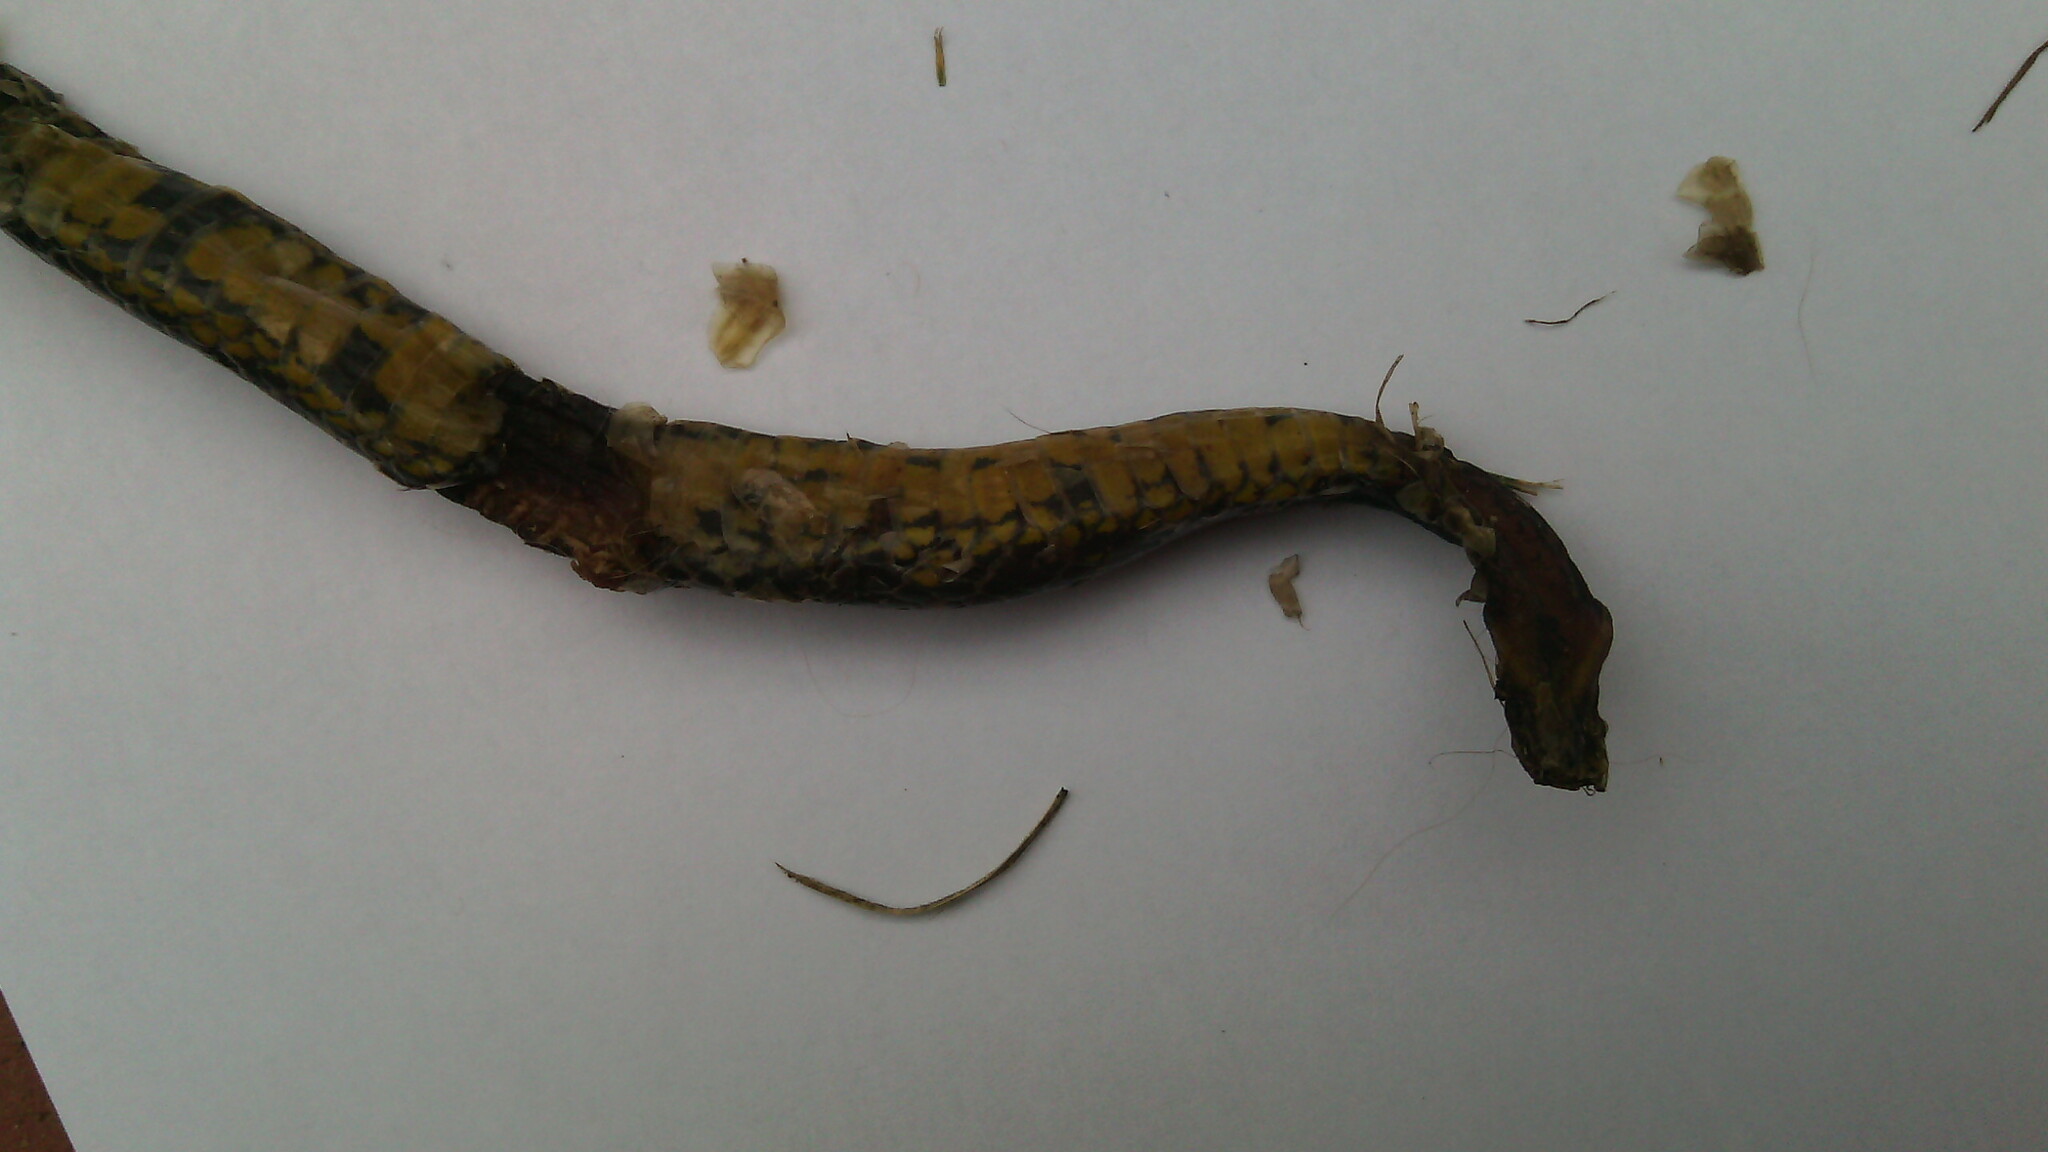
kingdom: Animalia
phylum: Chordata
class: Squamata
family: Colubridae
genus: Atractus
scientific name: Atractus crassicaudatus
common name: Thickhead ground snake
